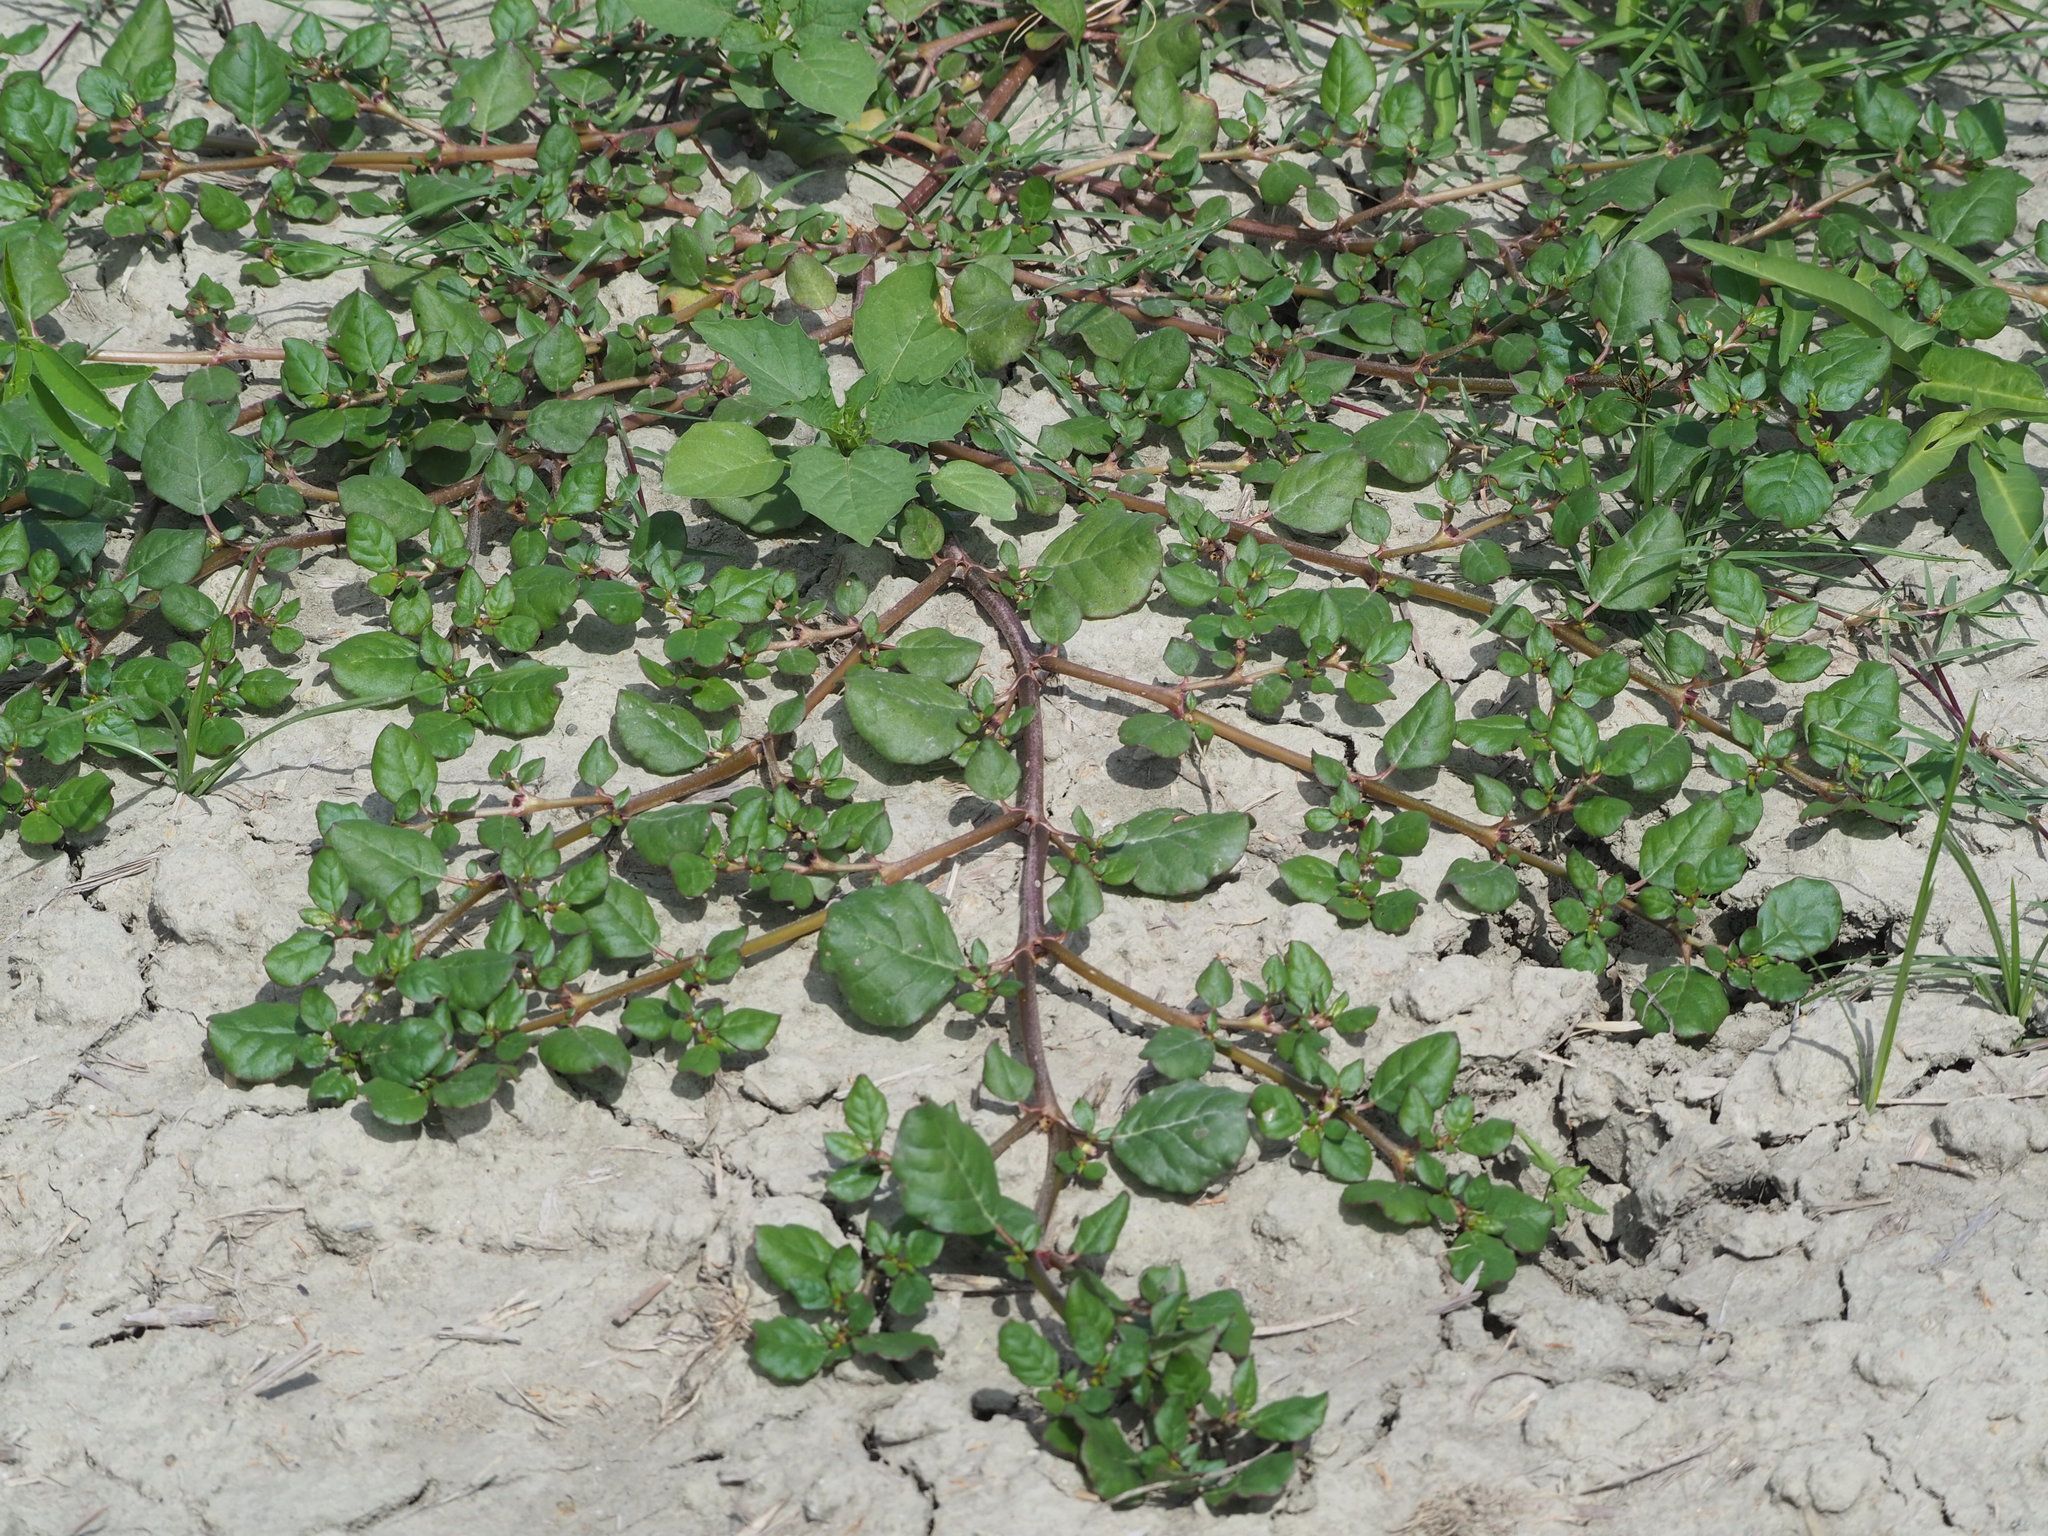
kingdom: Plantae
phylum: Tracheophyta
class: Magnoliopsida
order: Caryophyllales
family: Aizoaceae
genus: Trianthema
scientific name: Trianthema portulacastrum
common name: Desert horsepurslane
